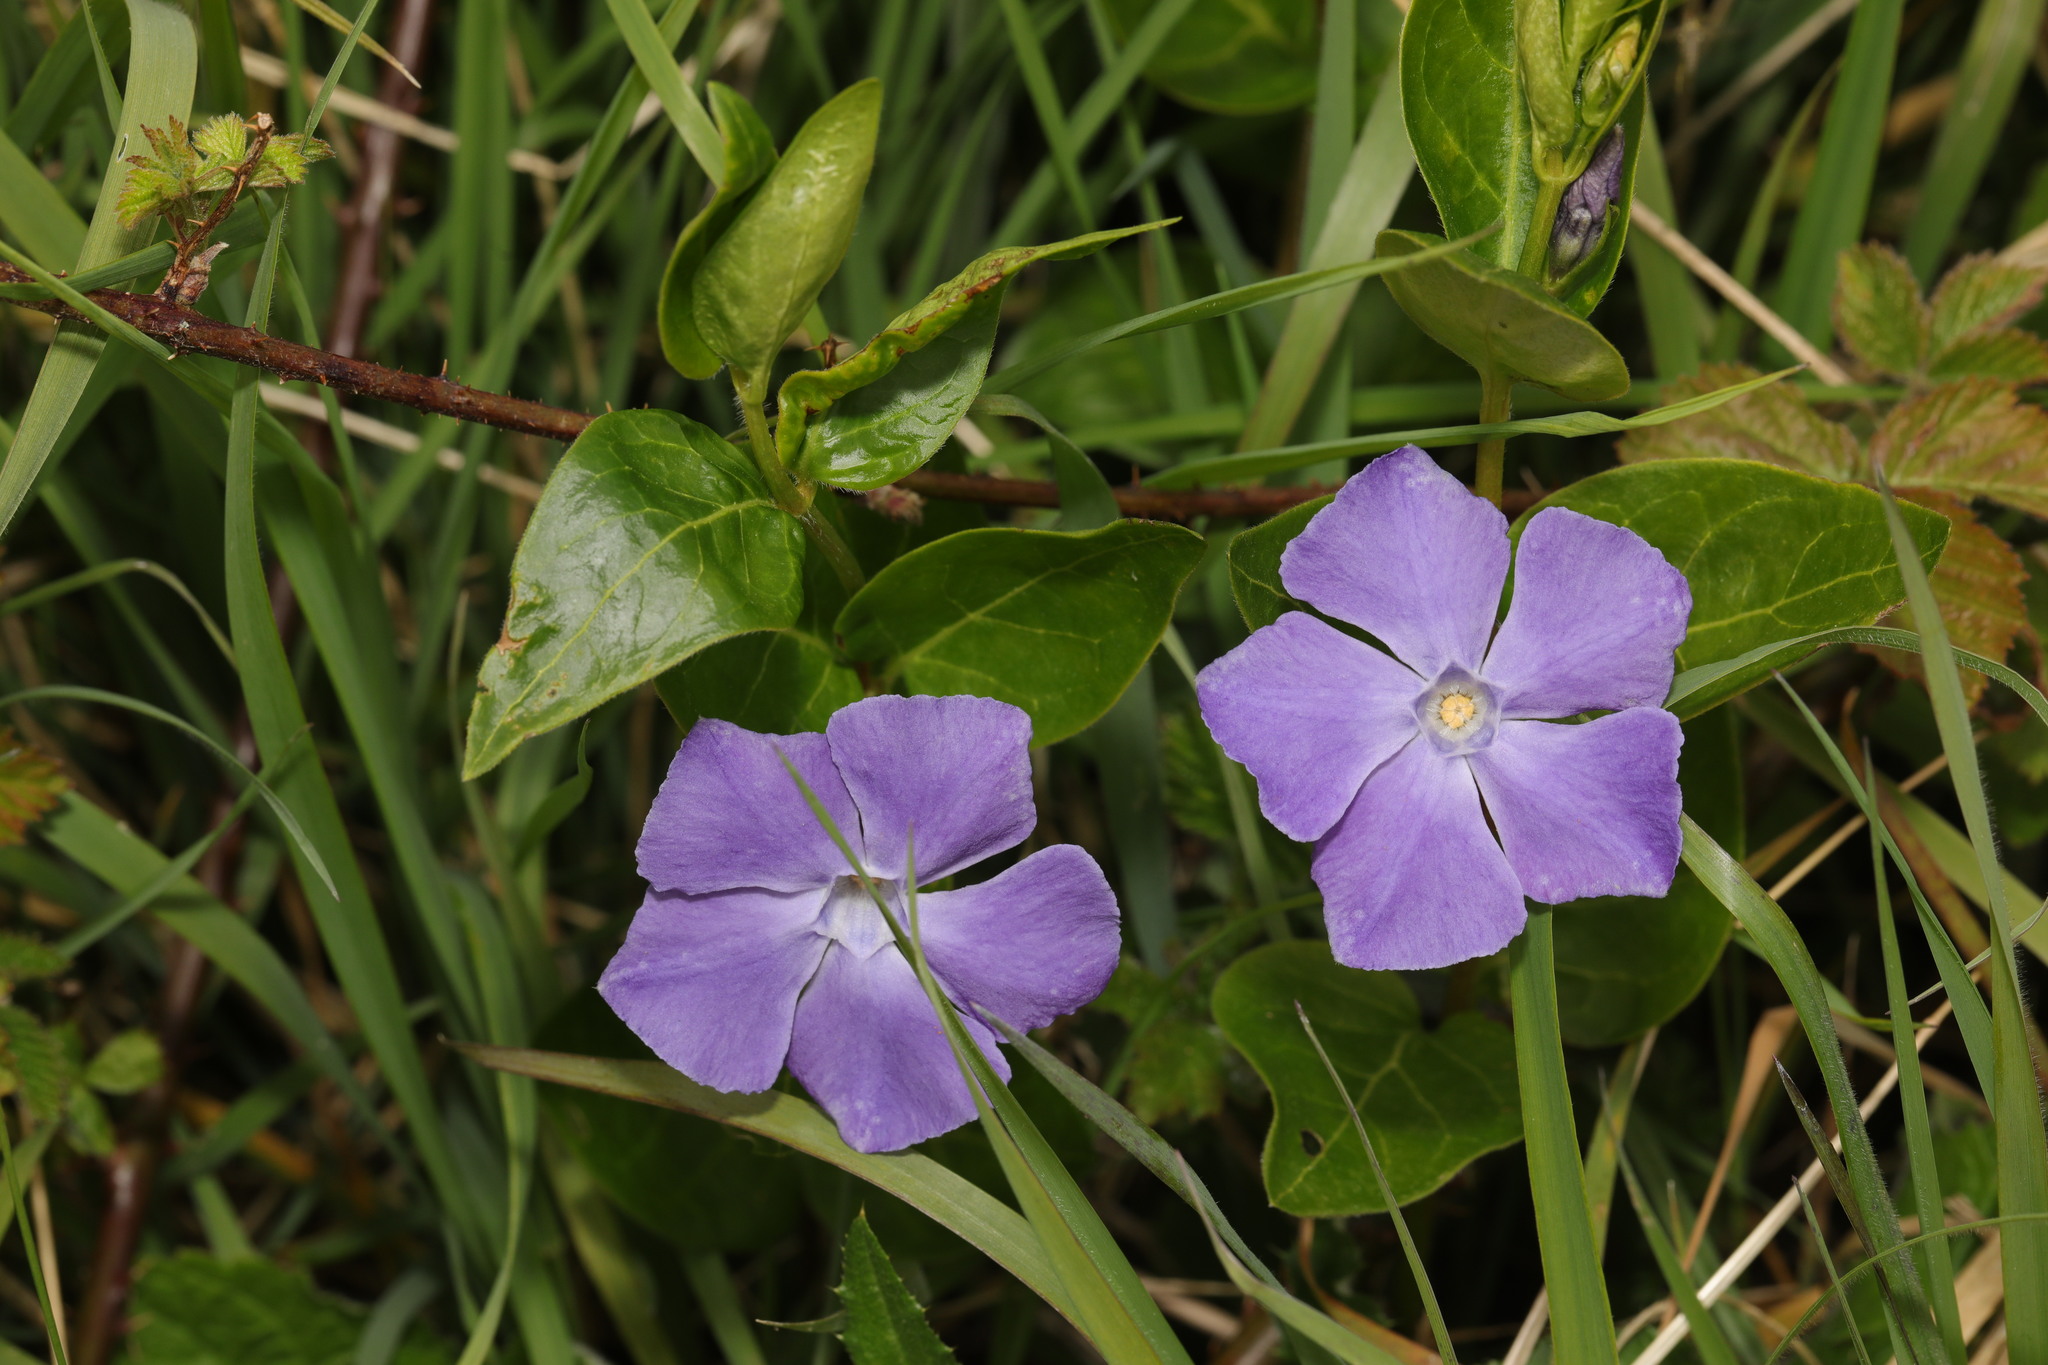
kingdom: Plantae
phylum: Tracheophyta
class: Magnoliopsida
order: Gentianales
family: Apocynaceae
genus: Vinca
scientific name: Vinca major
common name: Greater periwinkle
